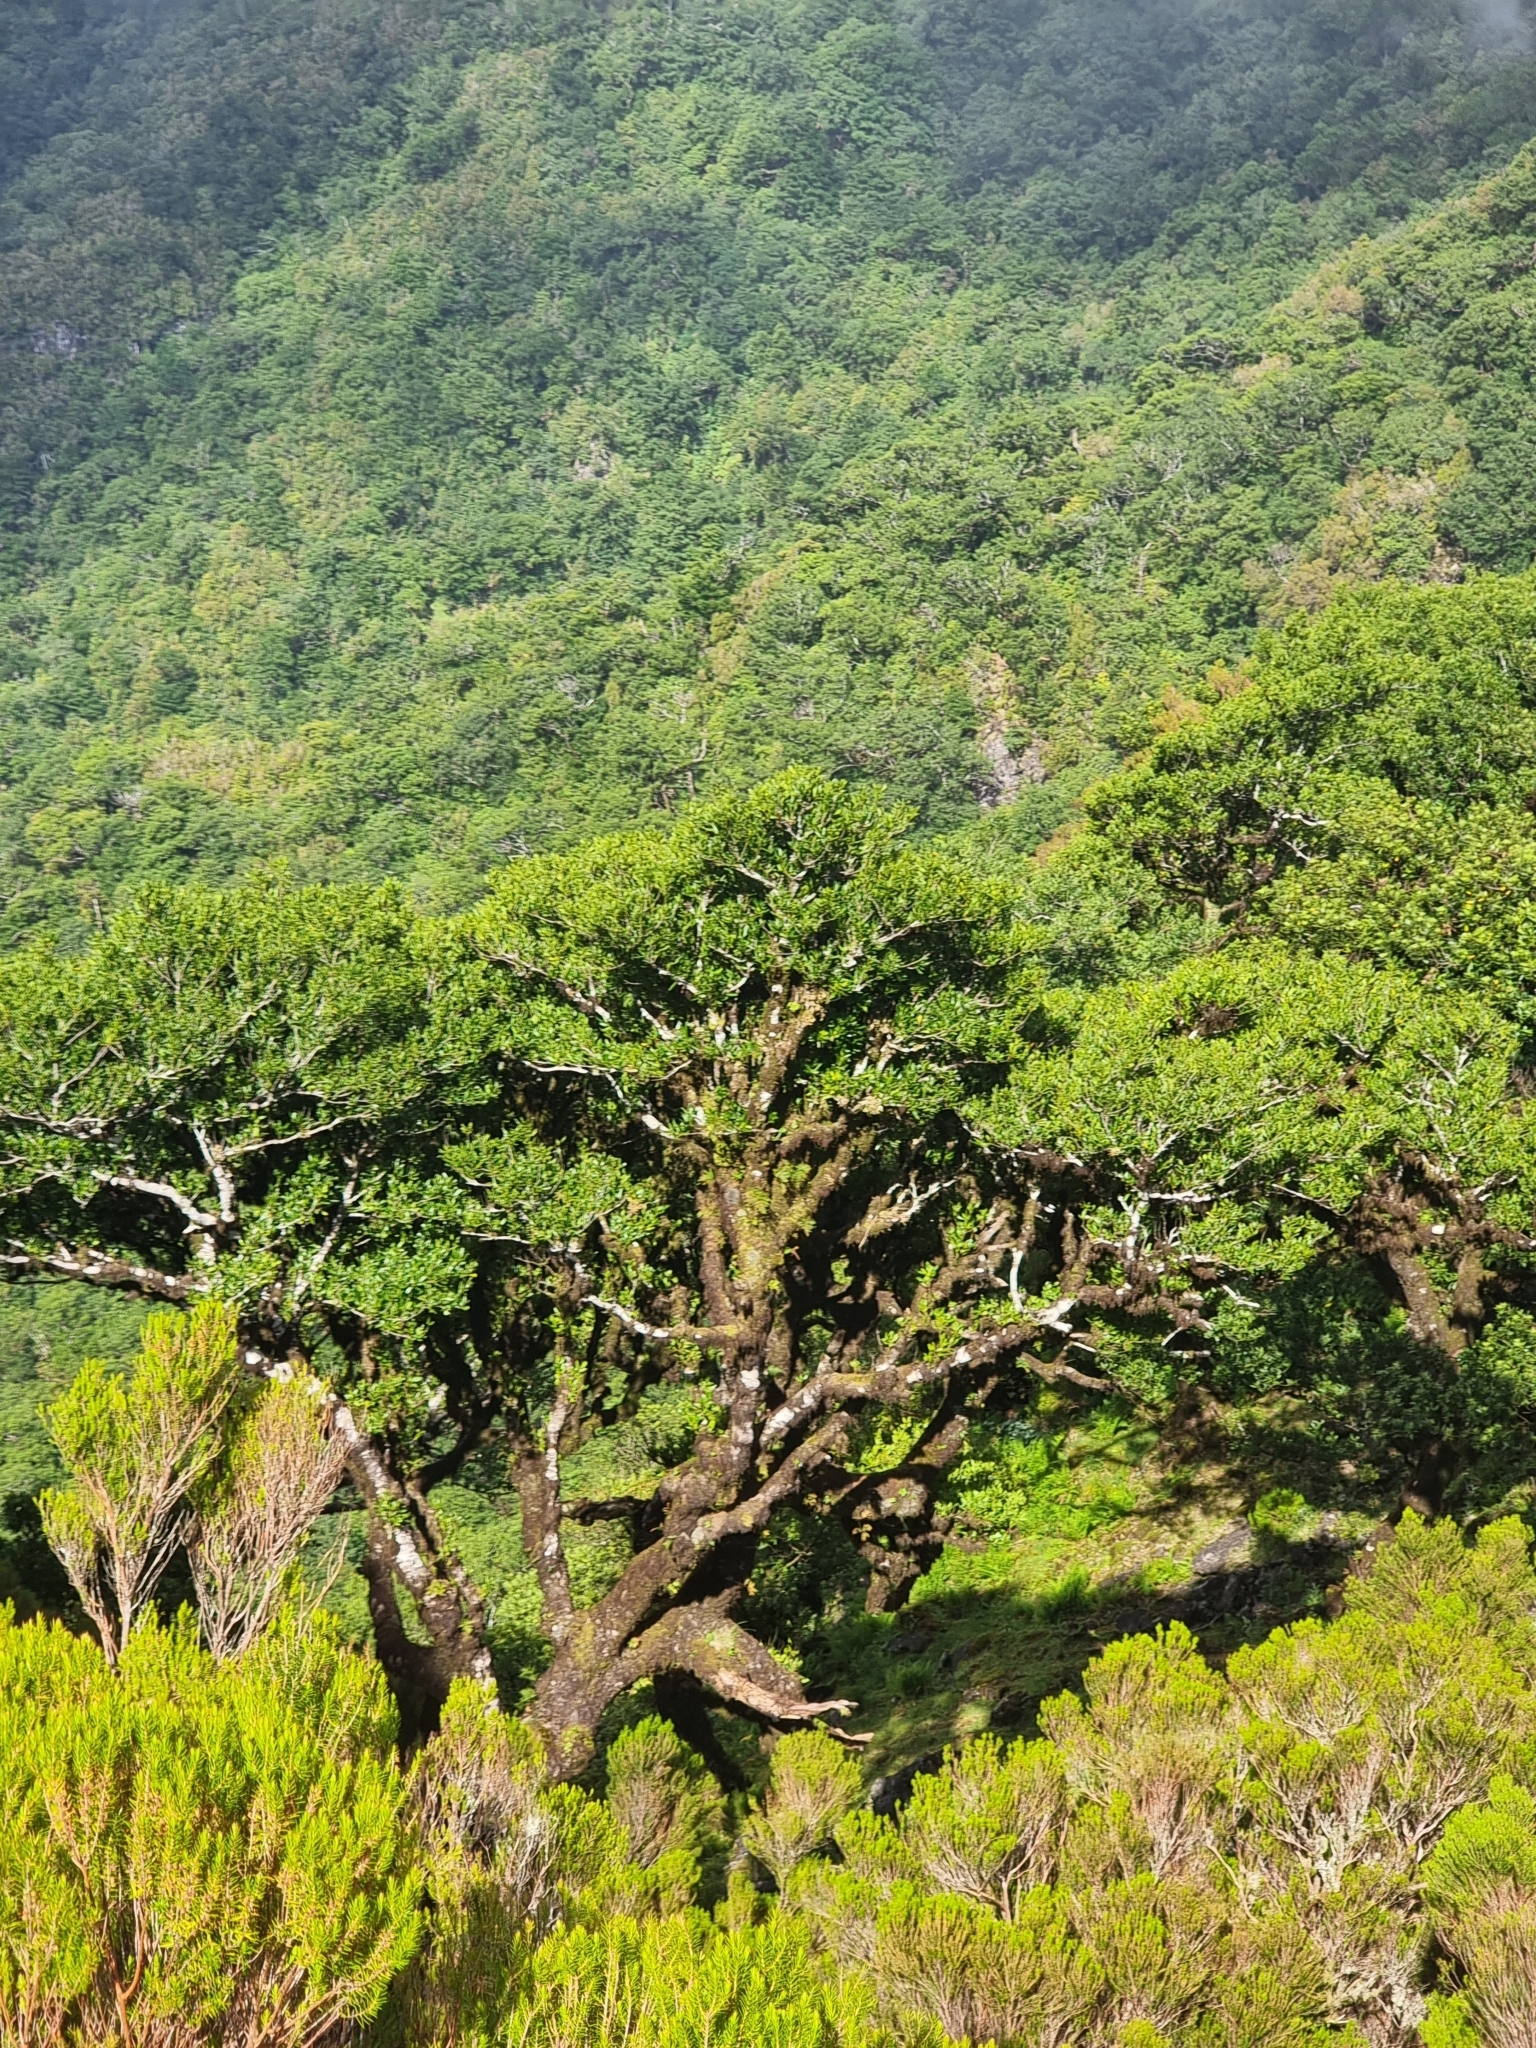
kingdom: Plantae
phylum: Tracheophyta
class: Magnoliopsida
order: Laurales
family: Lauraceae
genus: Mespilodaphne
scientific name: Mespilodaphne foetens
